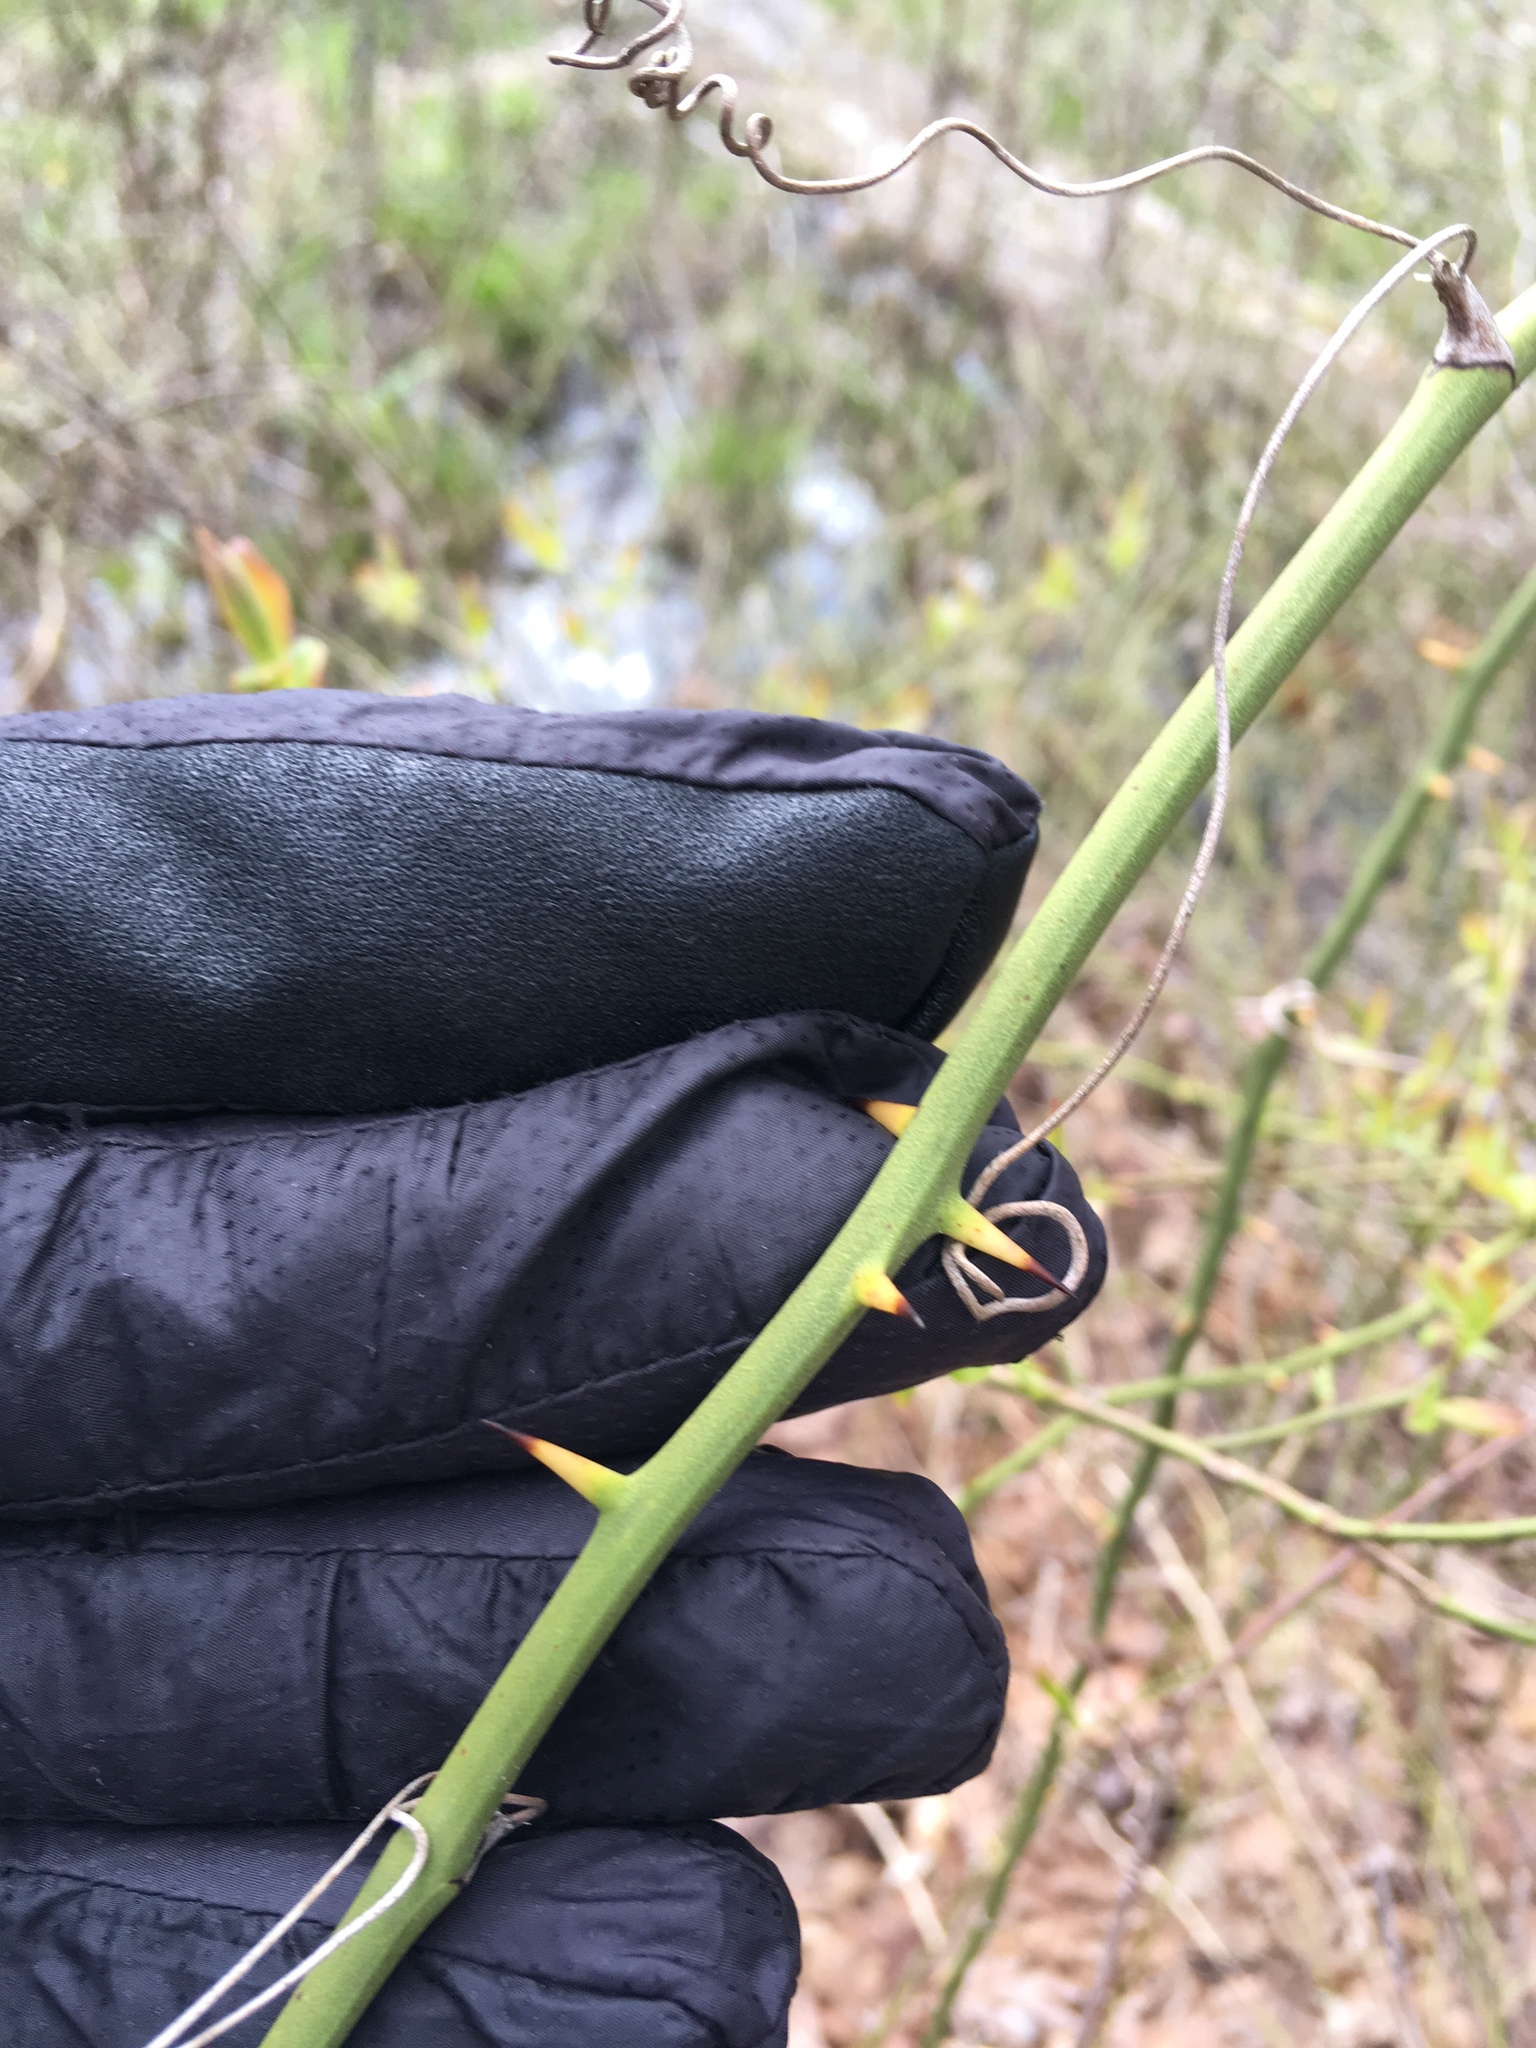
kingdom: Plantae
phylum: Tracheophyta
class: Liliopsida
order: Liliales
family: Smilacaceae
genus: Smilax
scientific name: Smilax rotundifolia
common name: Bullbriar
